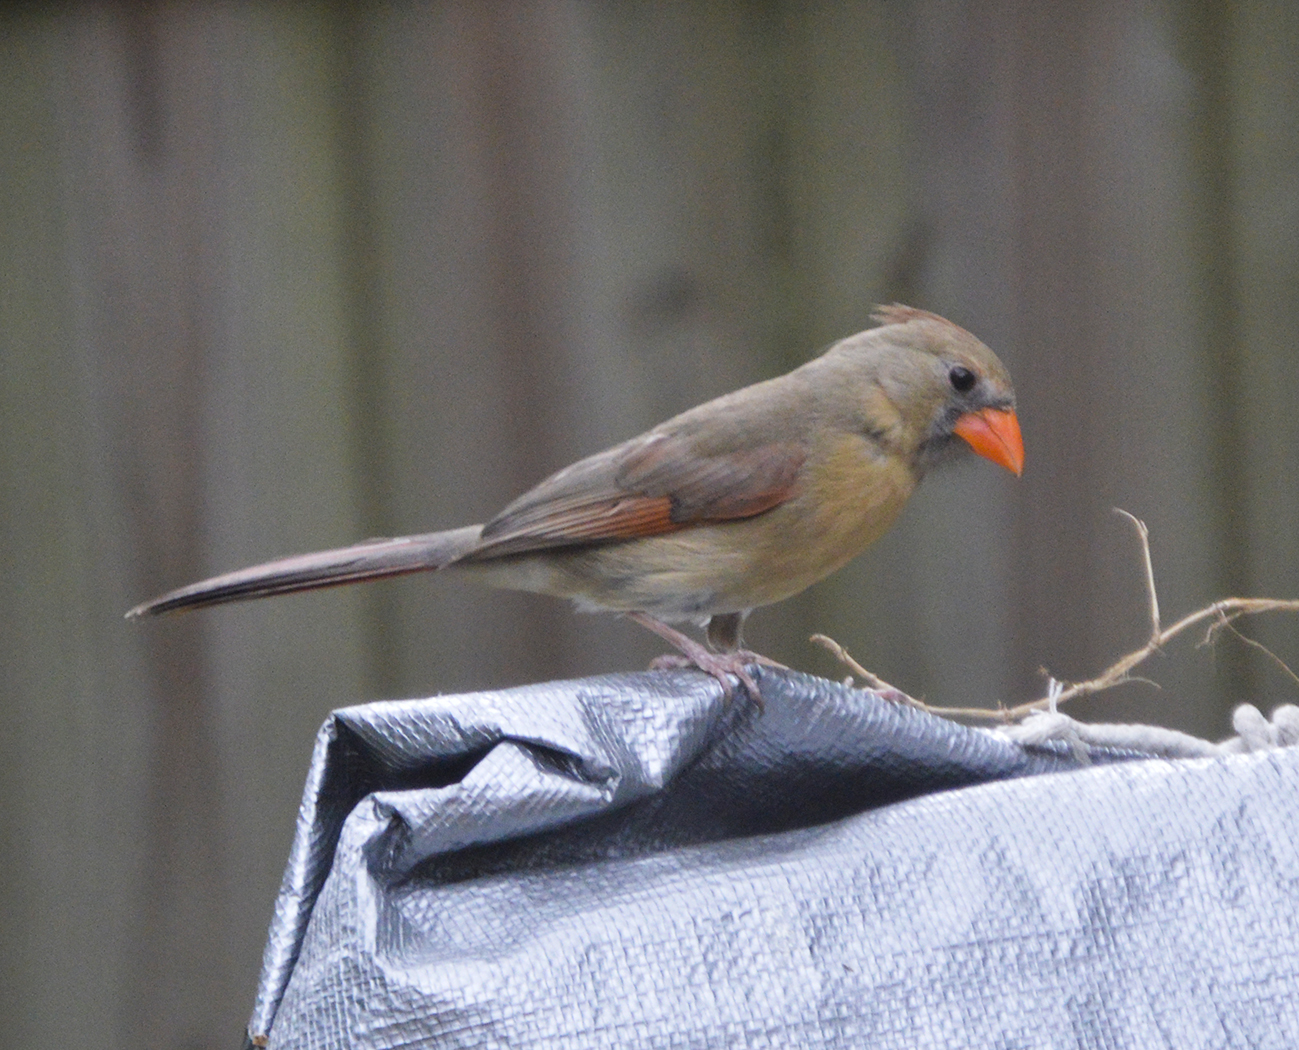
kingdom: Animalia
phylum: Chordata
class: Aves
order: Passeriformes
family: Cardinalidae
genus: Cardinalis
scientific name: Cardinalis cardinalis
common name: Northern cardinal
